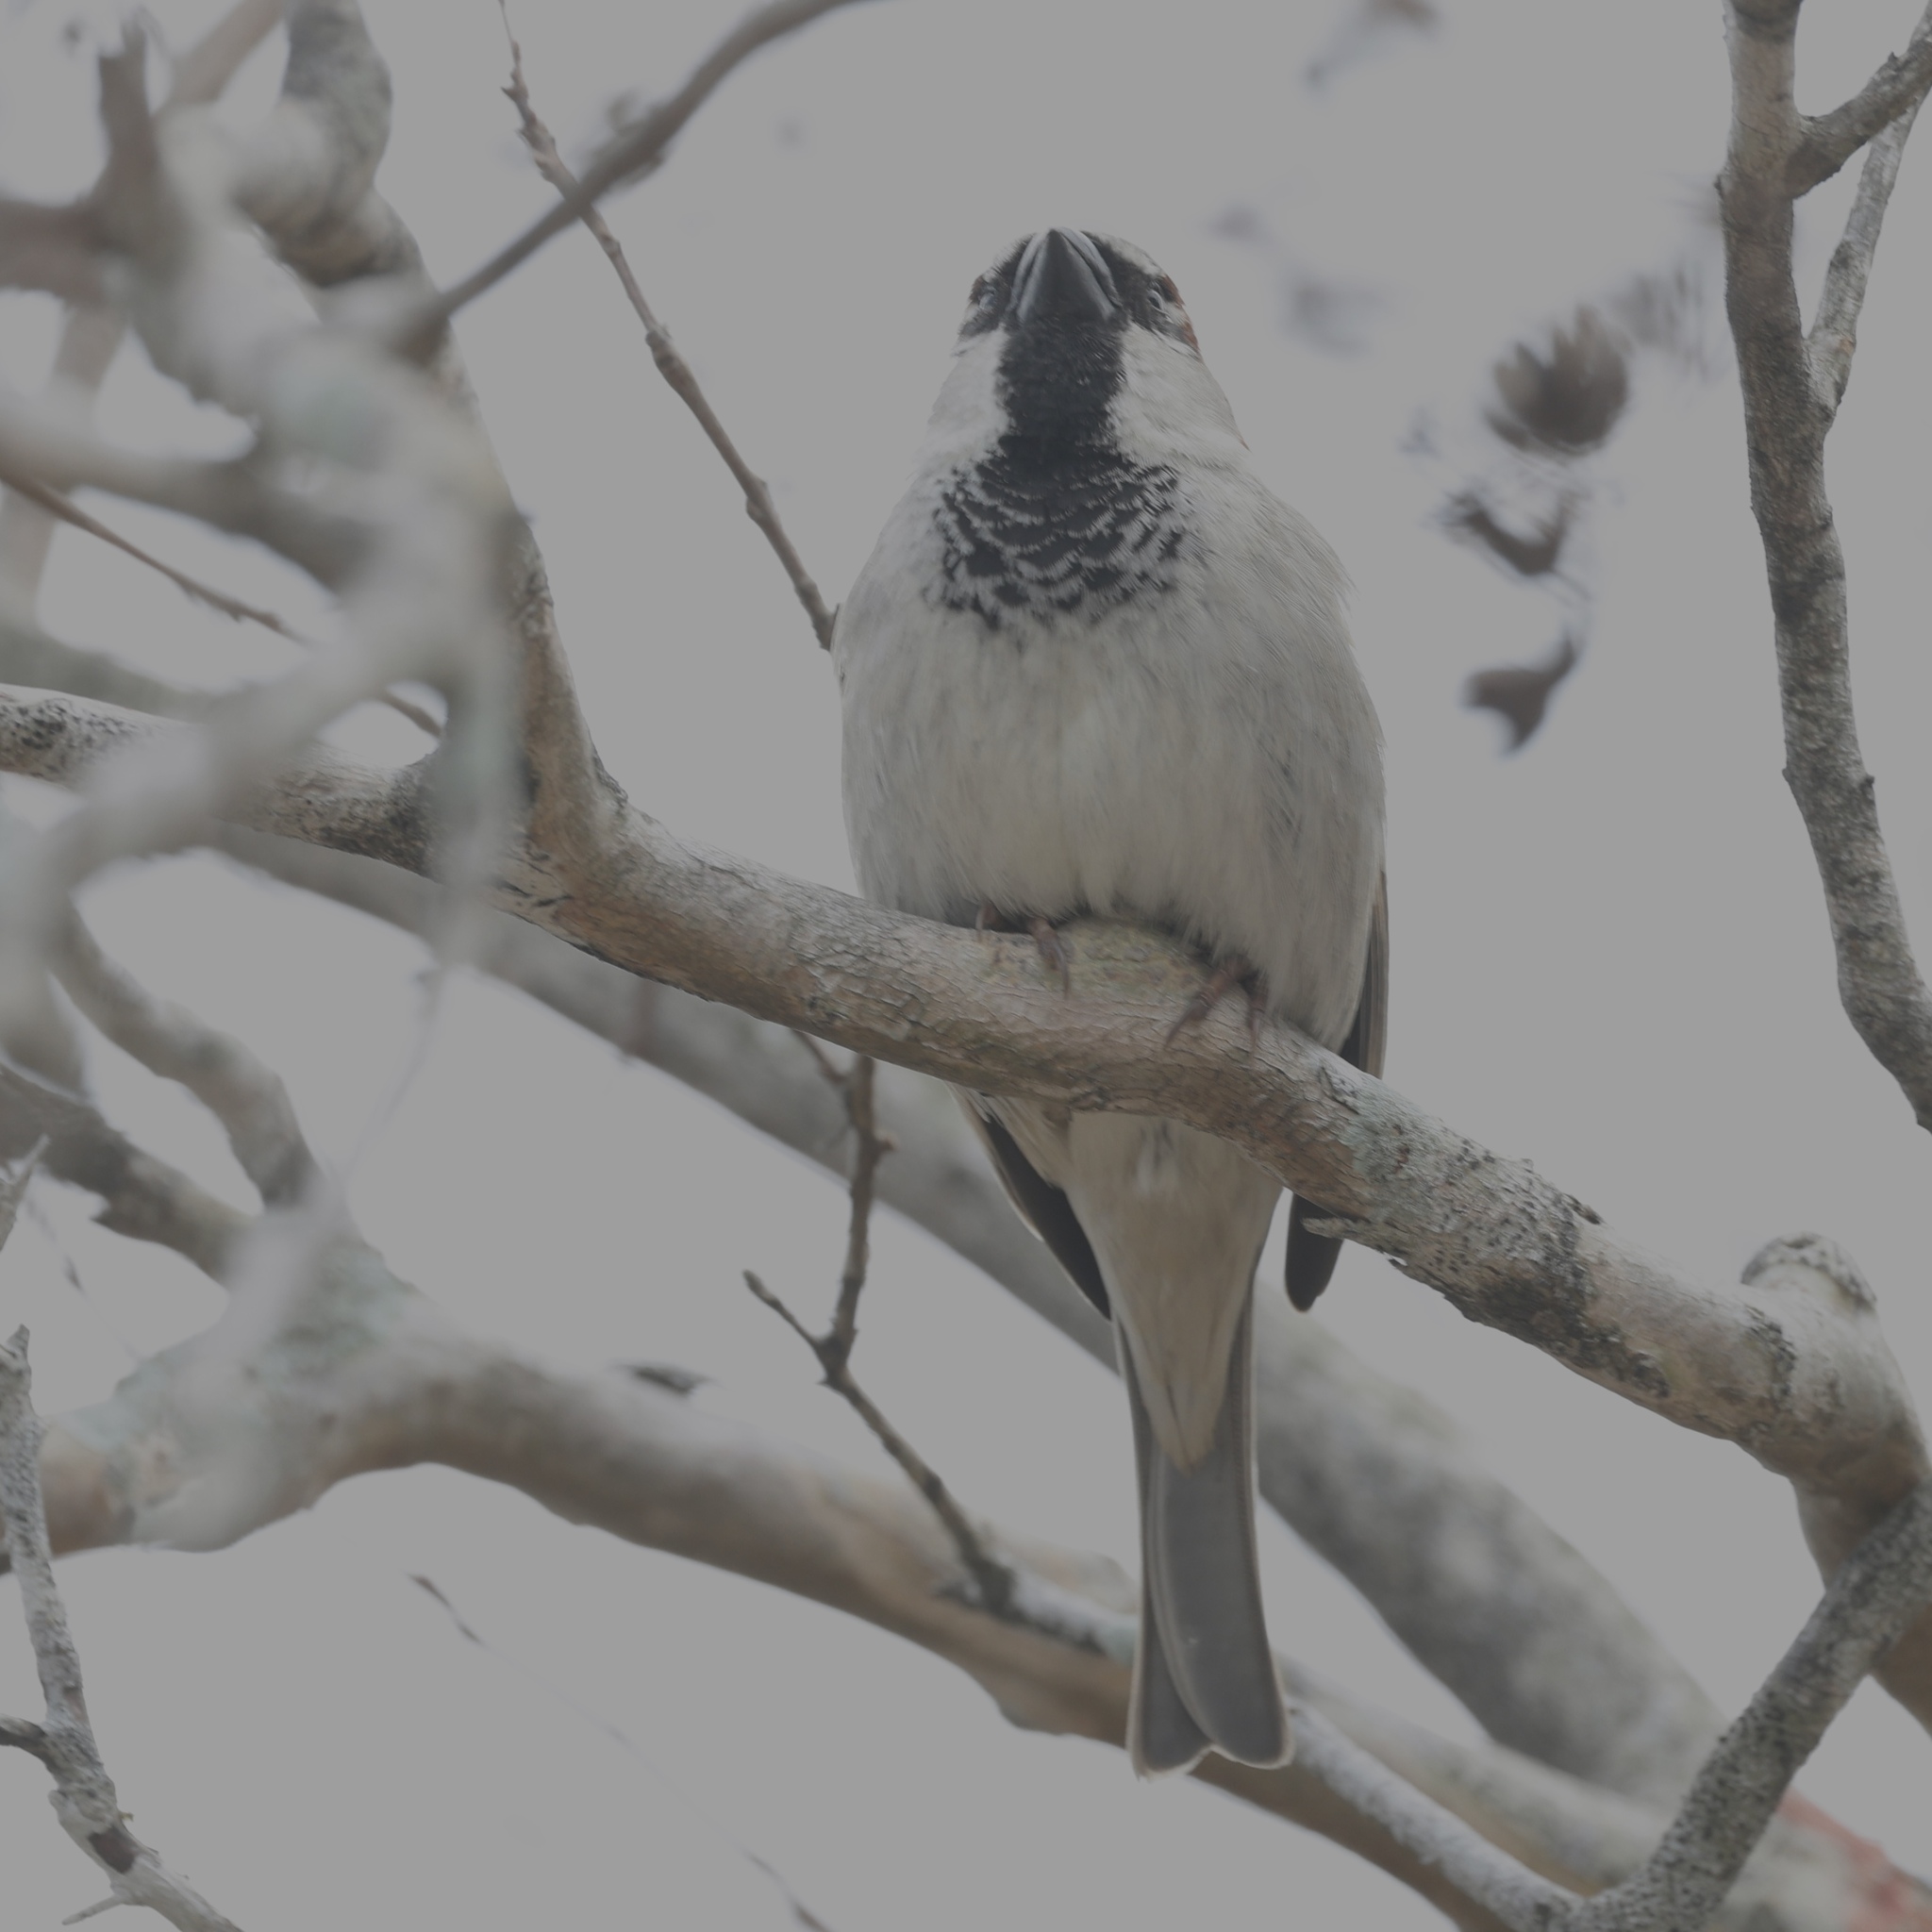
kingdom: Animalia
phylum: Chordata
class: Aves
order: Passeriformes
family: Passeridae
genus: Passer
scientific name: Passer domesticus
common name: House sparrow
